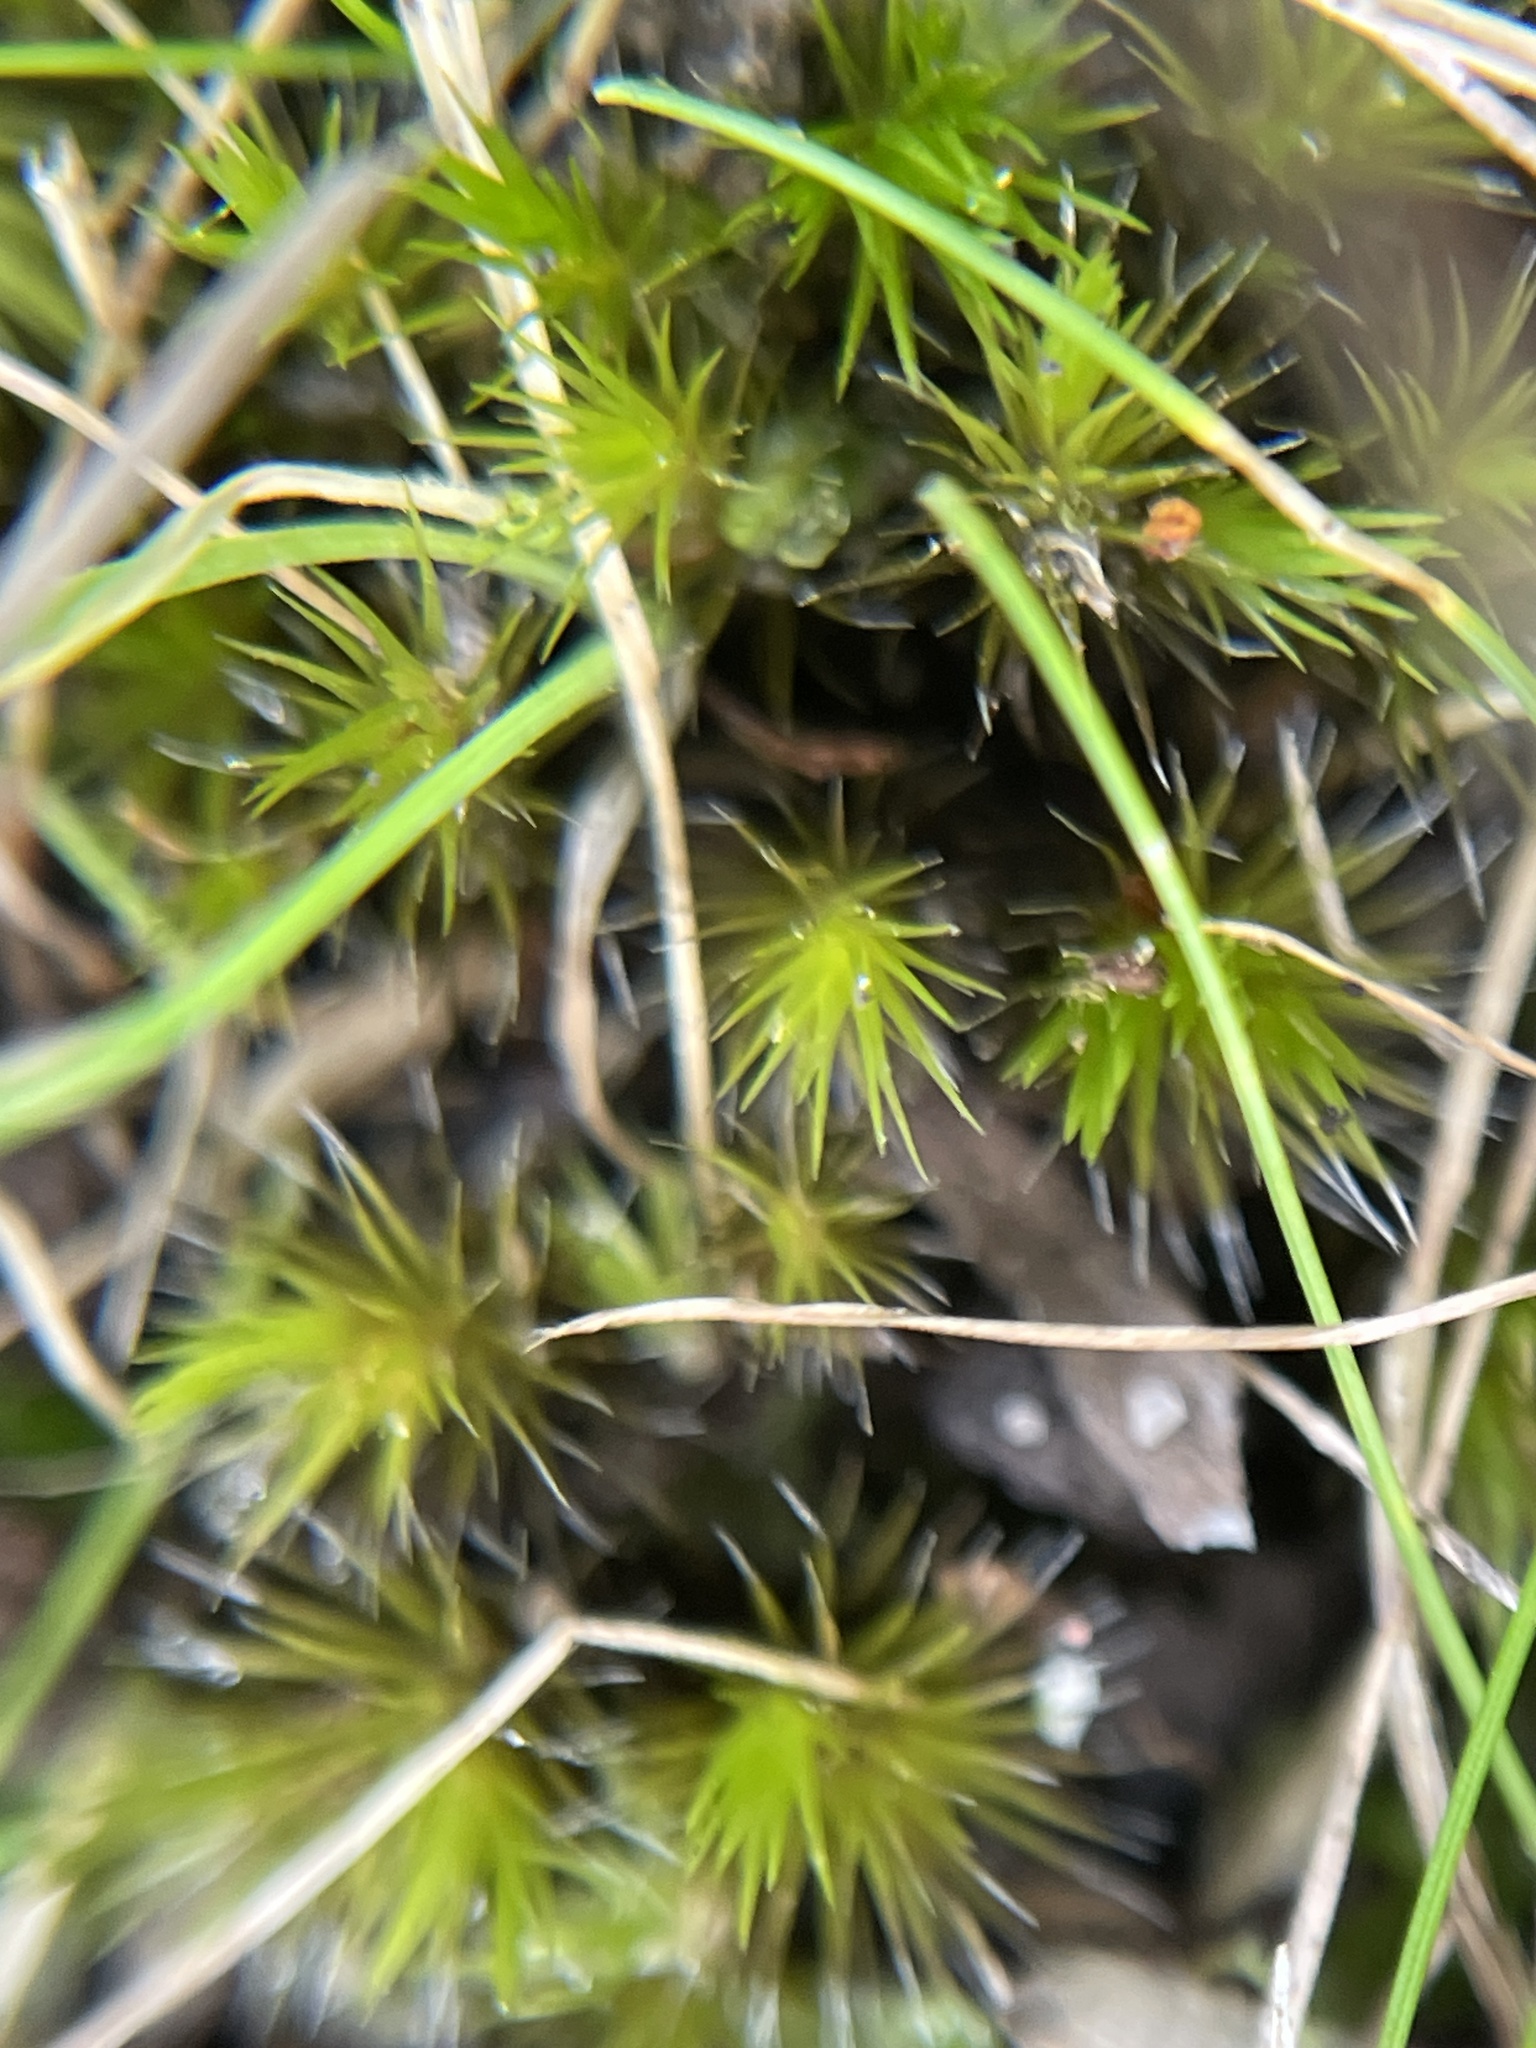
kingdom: Plantae
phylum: Bryophyta
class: Bryopsida
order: Dicranales
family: Leucobryaceae
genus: Campylopus
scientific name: Campylopus introflexus
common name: Heath star moss
